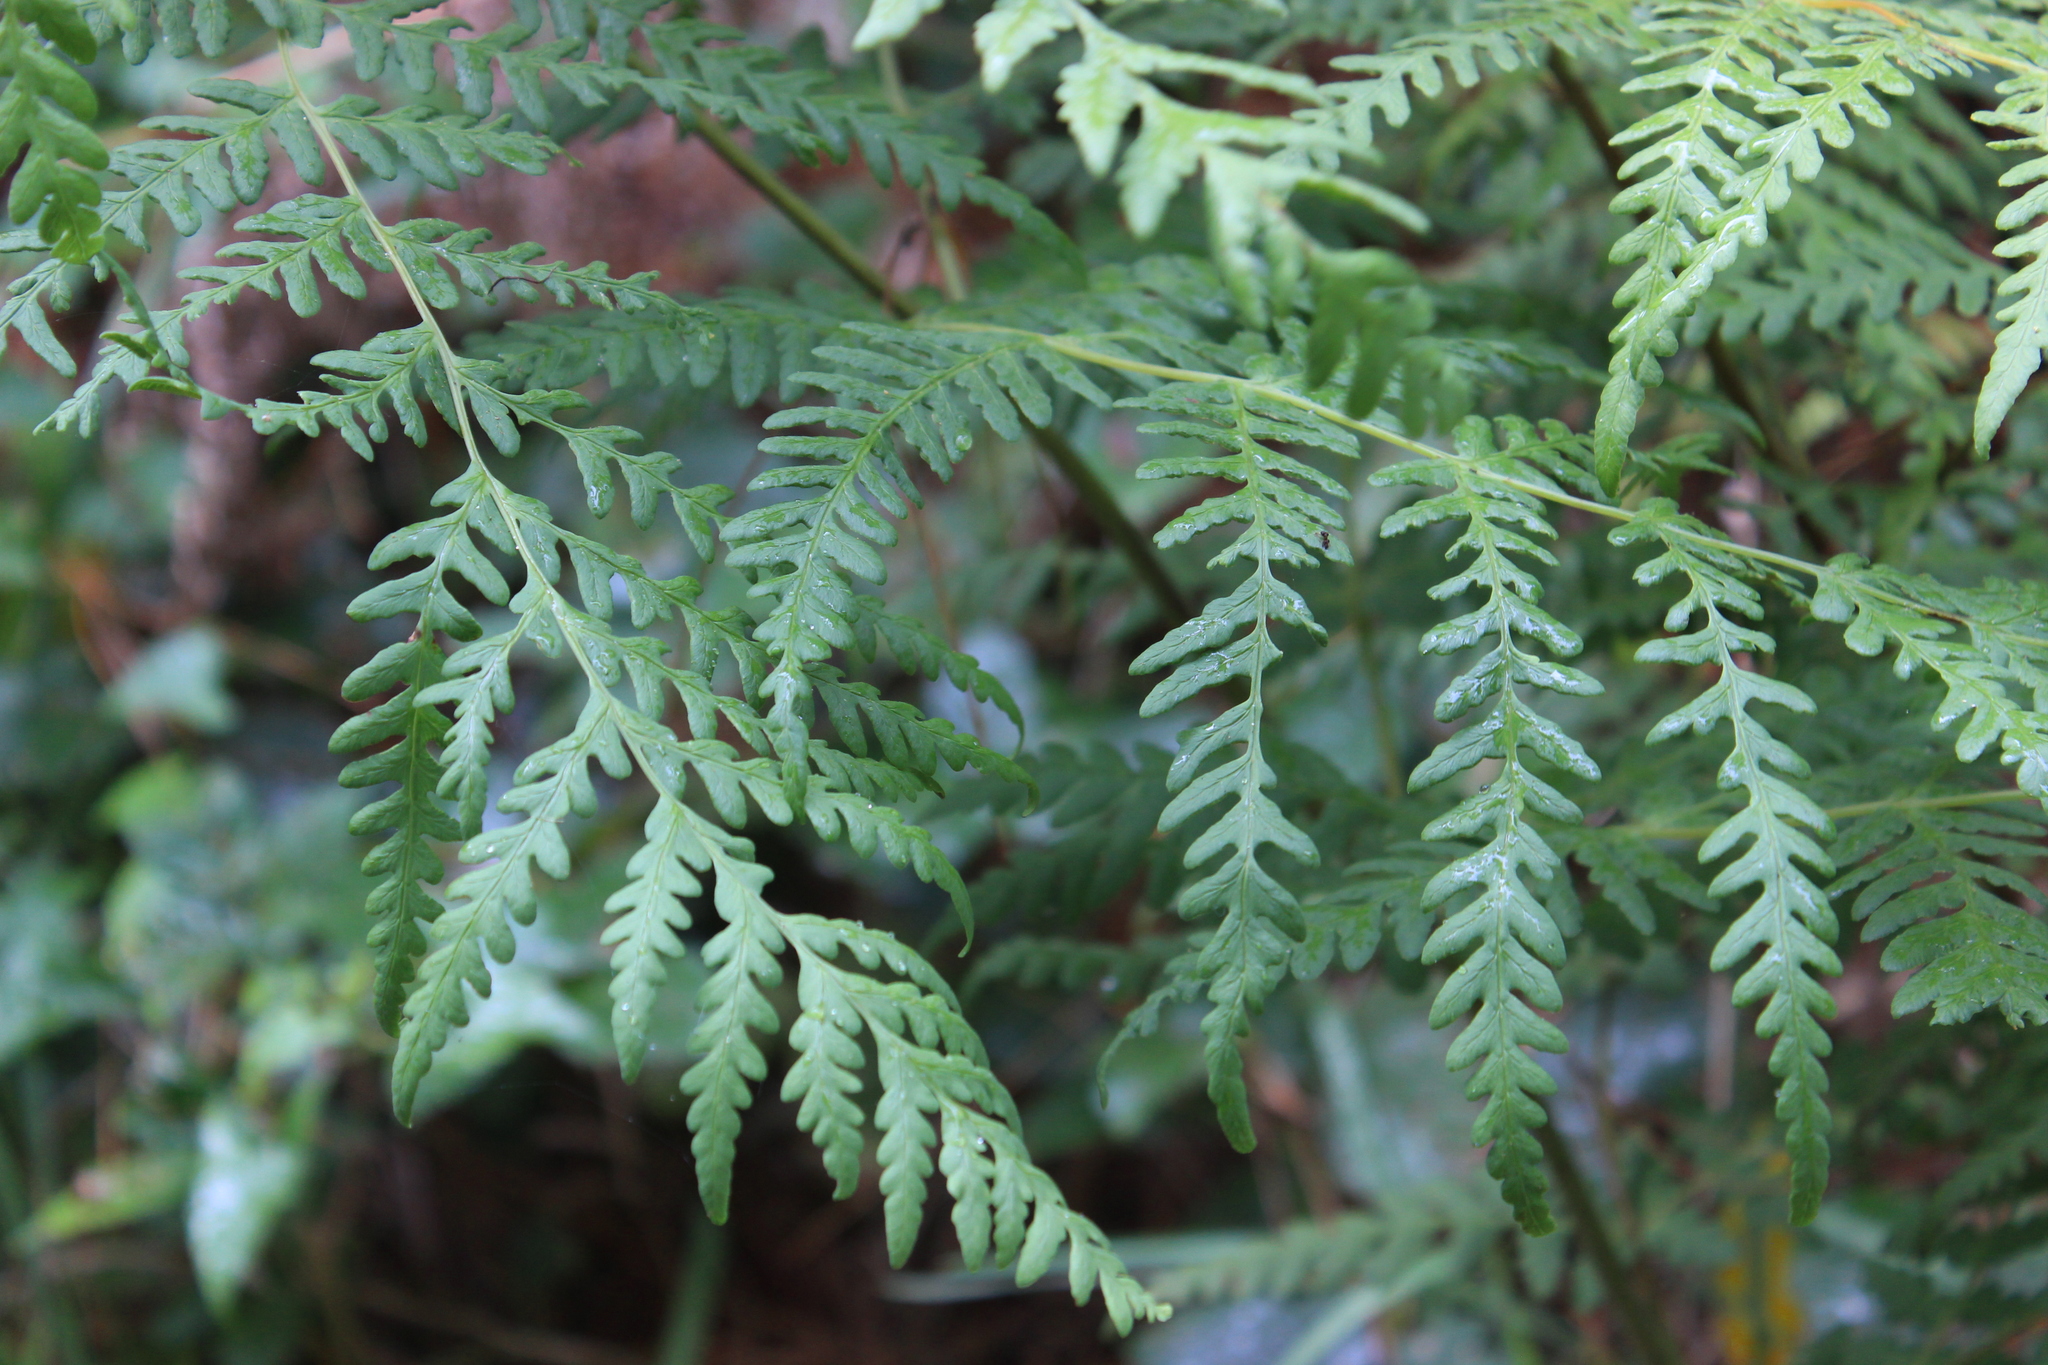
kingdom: Plantae
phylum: Tracheophyta
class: Polypodiopsida
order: Polypodiales
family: Dennstaedtiaceae
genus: Histiopteris
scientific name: Histiopteris incisa
